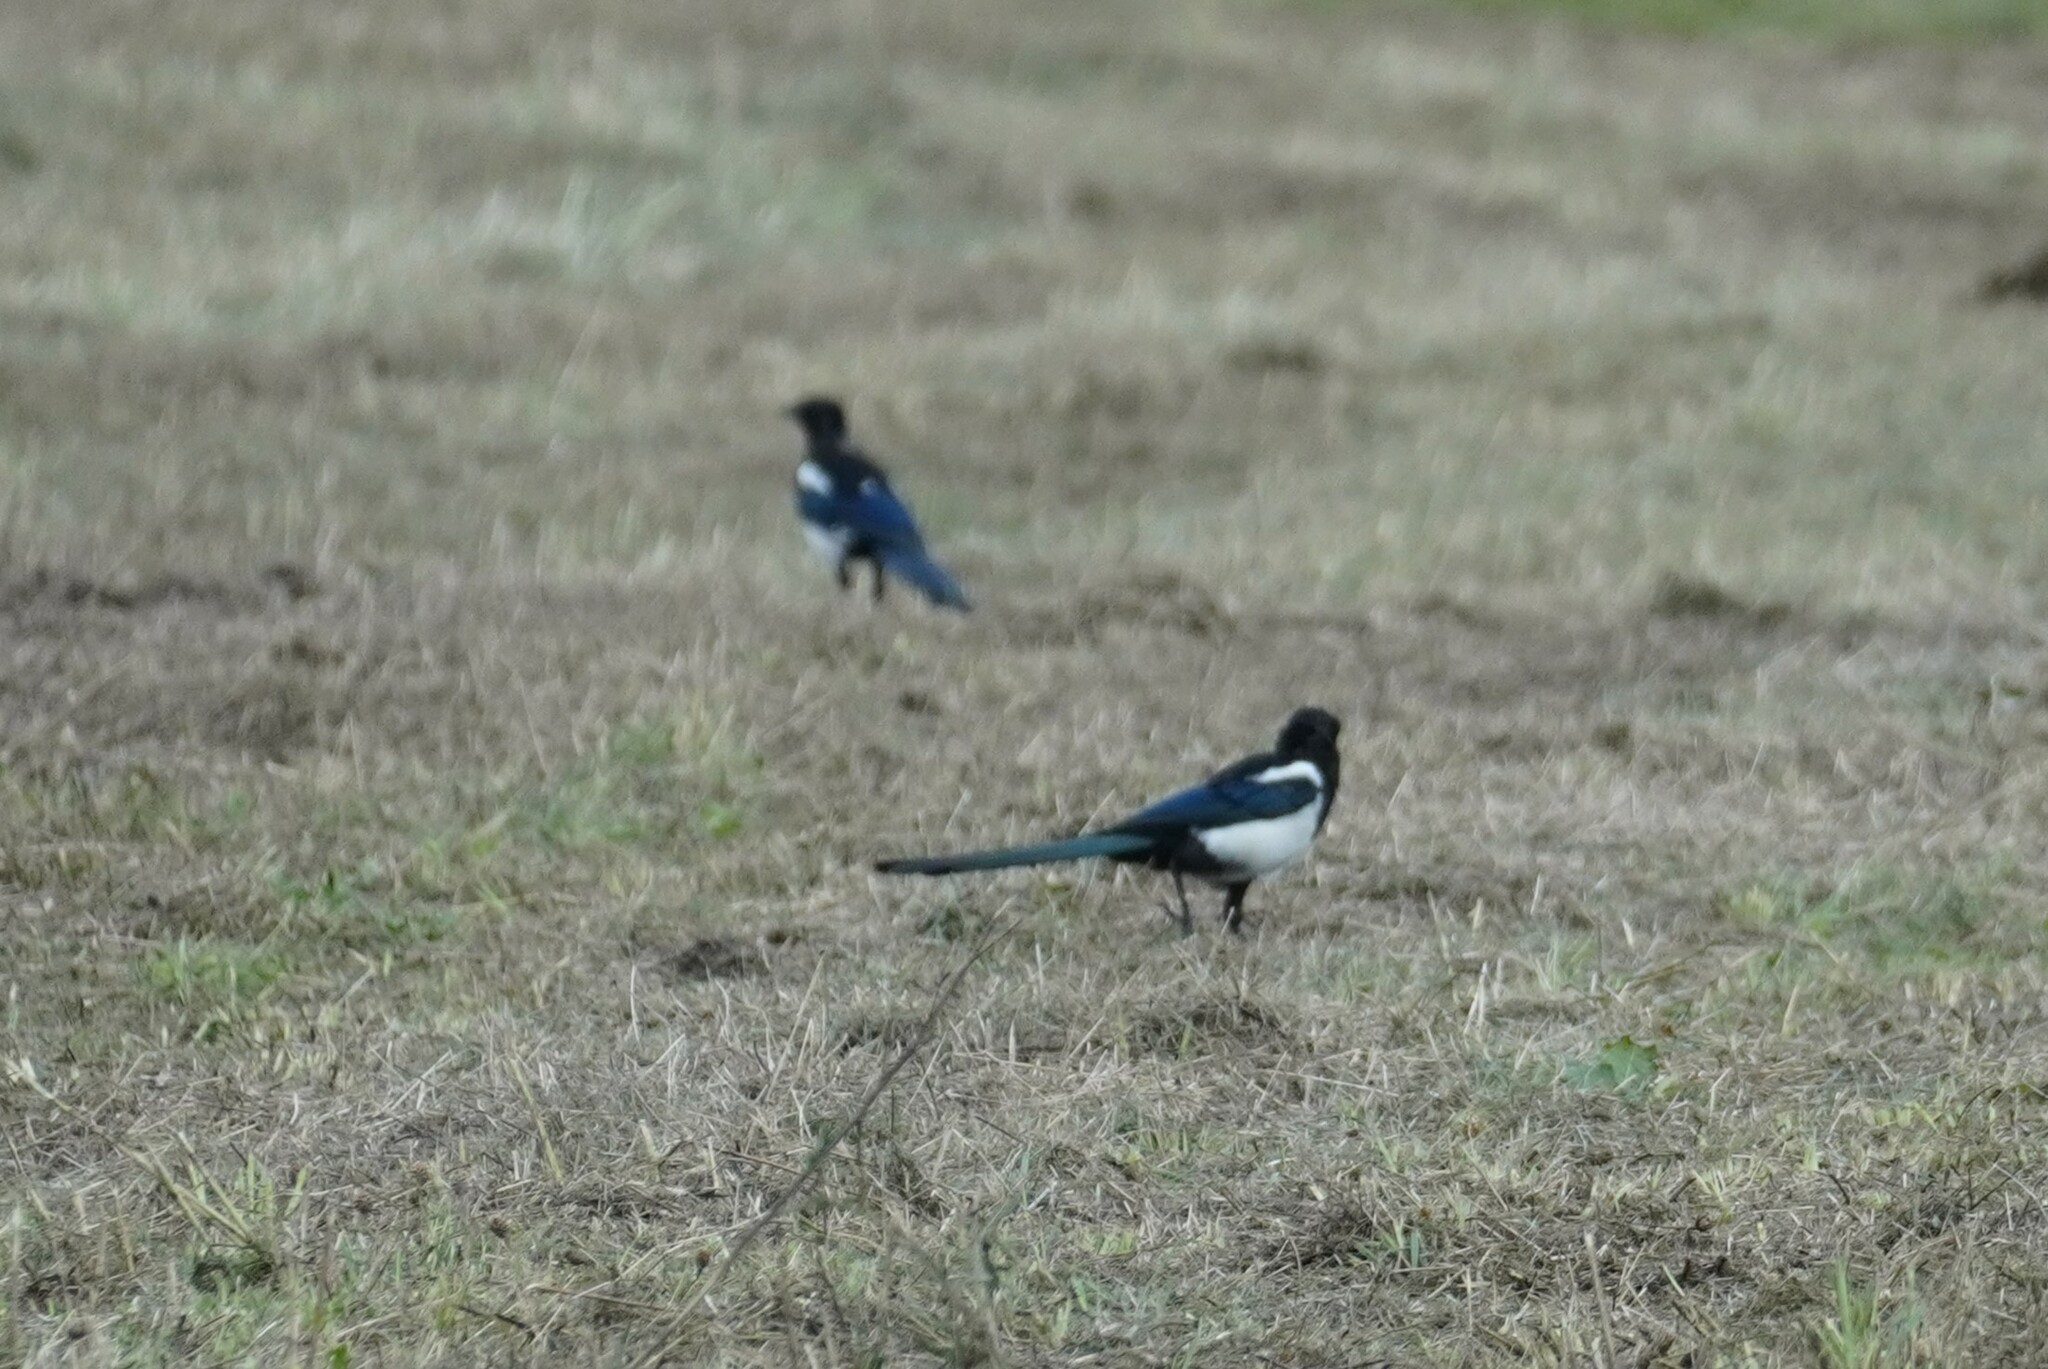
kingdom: Animalia
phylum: Chordata
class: Aves
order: Passeriformes
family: Corvidae
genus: Pica
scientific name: Pica pica
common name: Eurasian magpie
